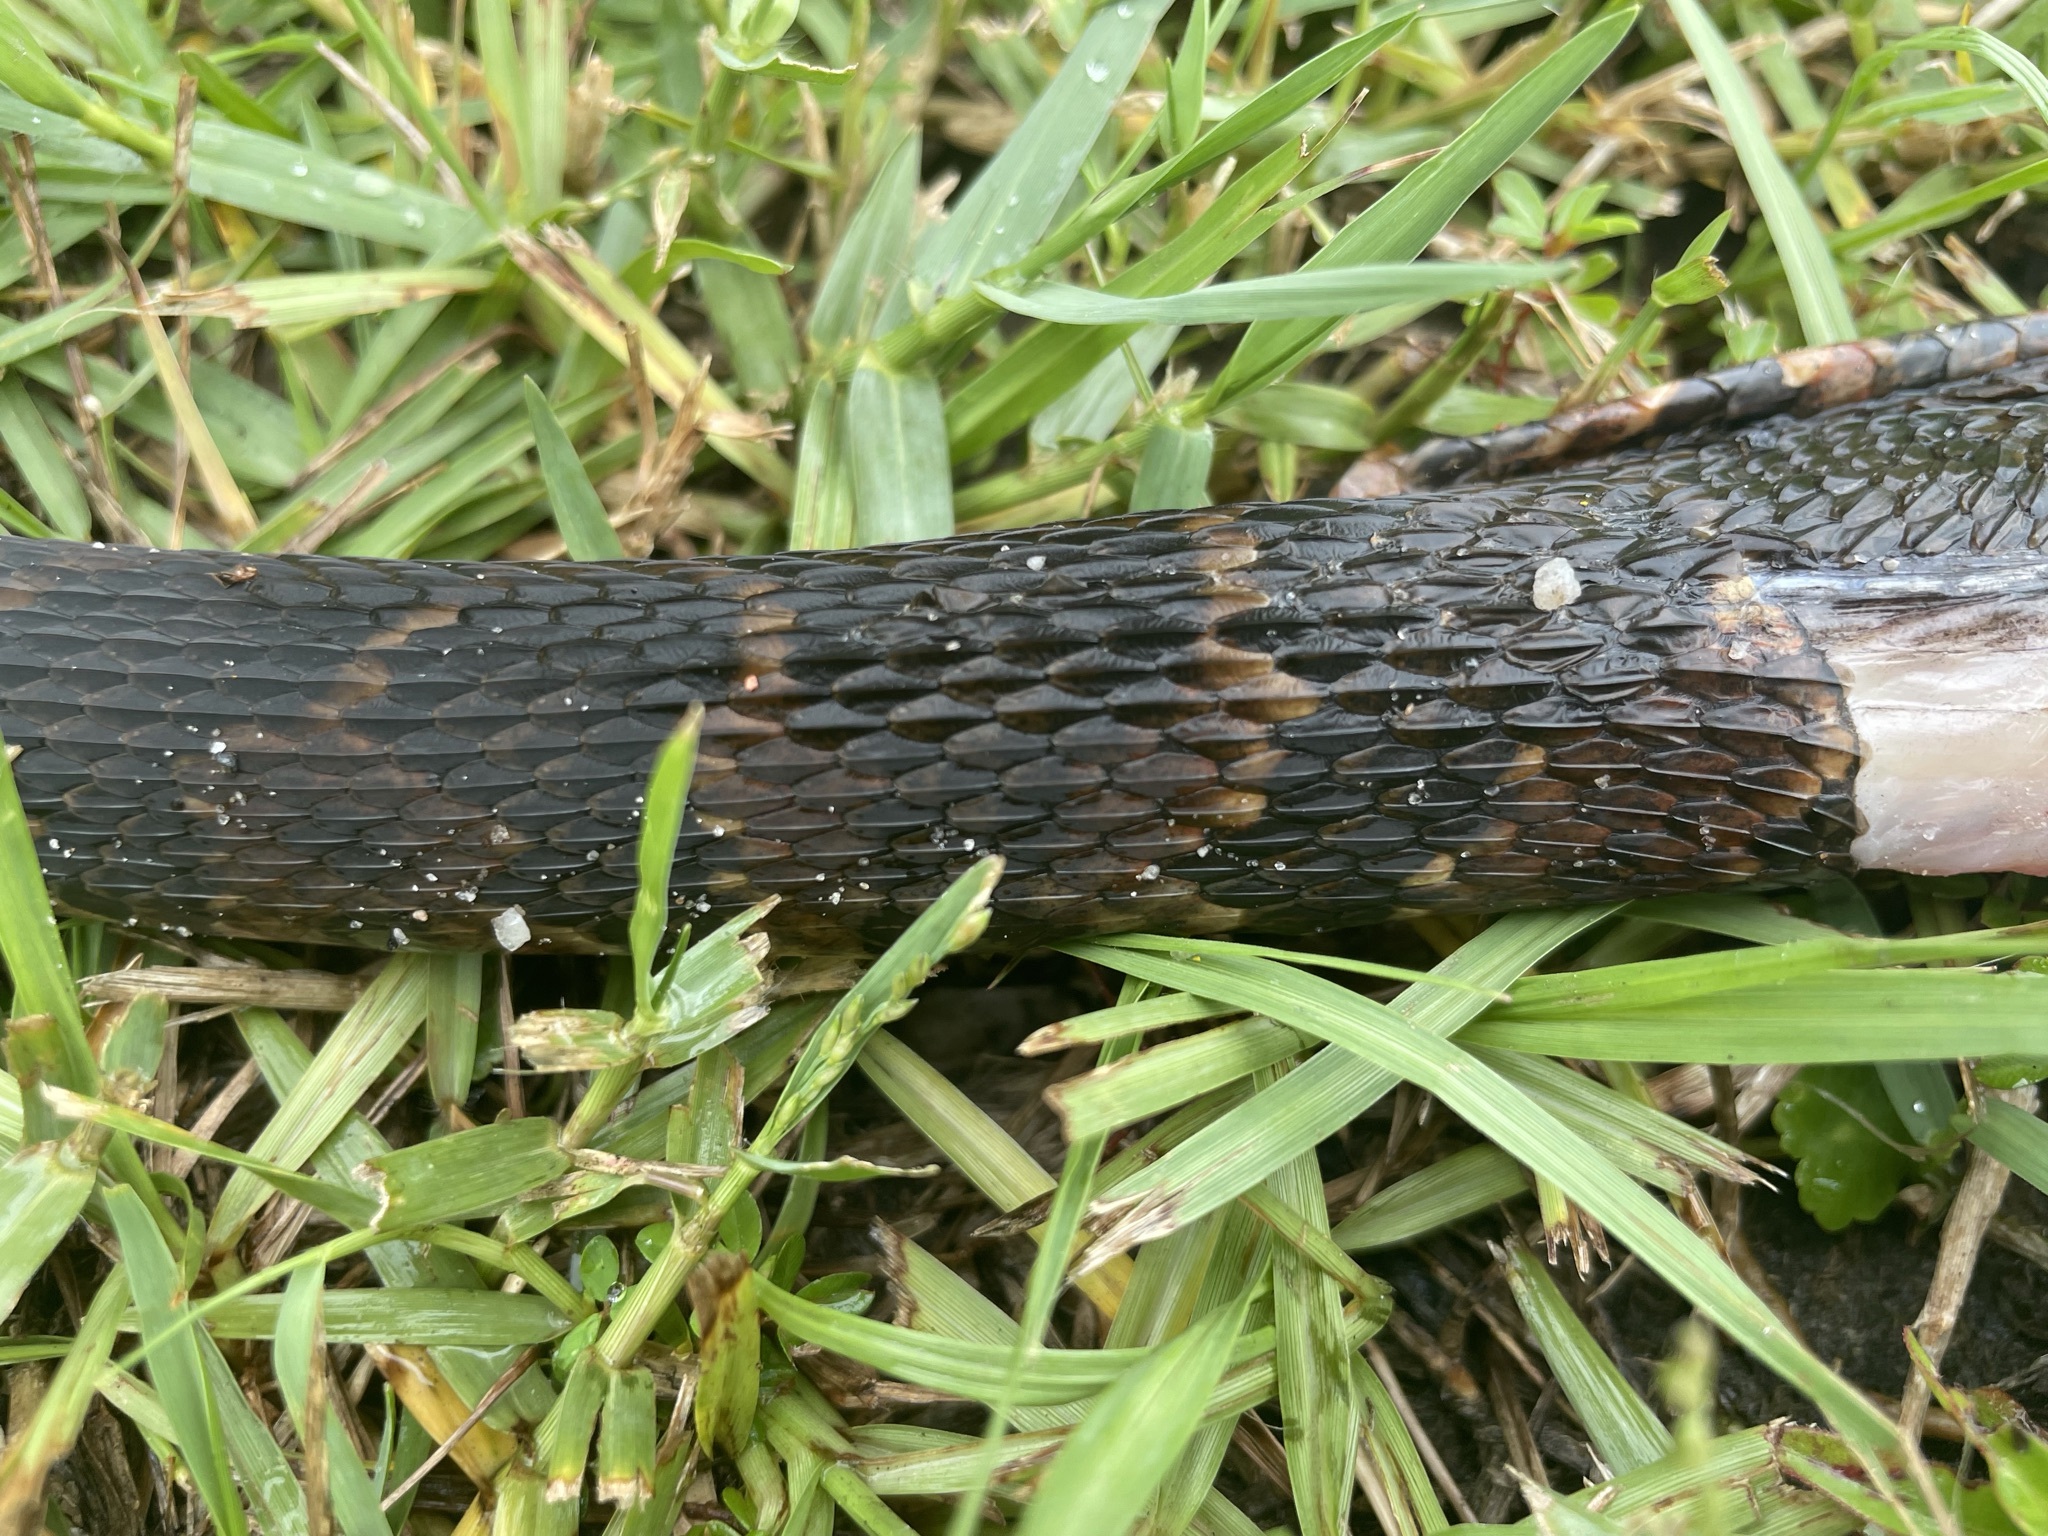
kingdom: Animalia
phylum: Chordata
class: Squamata
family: Colubridae
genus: Nerodia
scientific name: Nerodia fasciata
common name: Southern water snake
